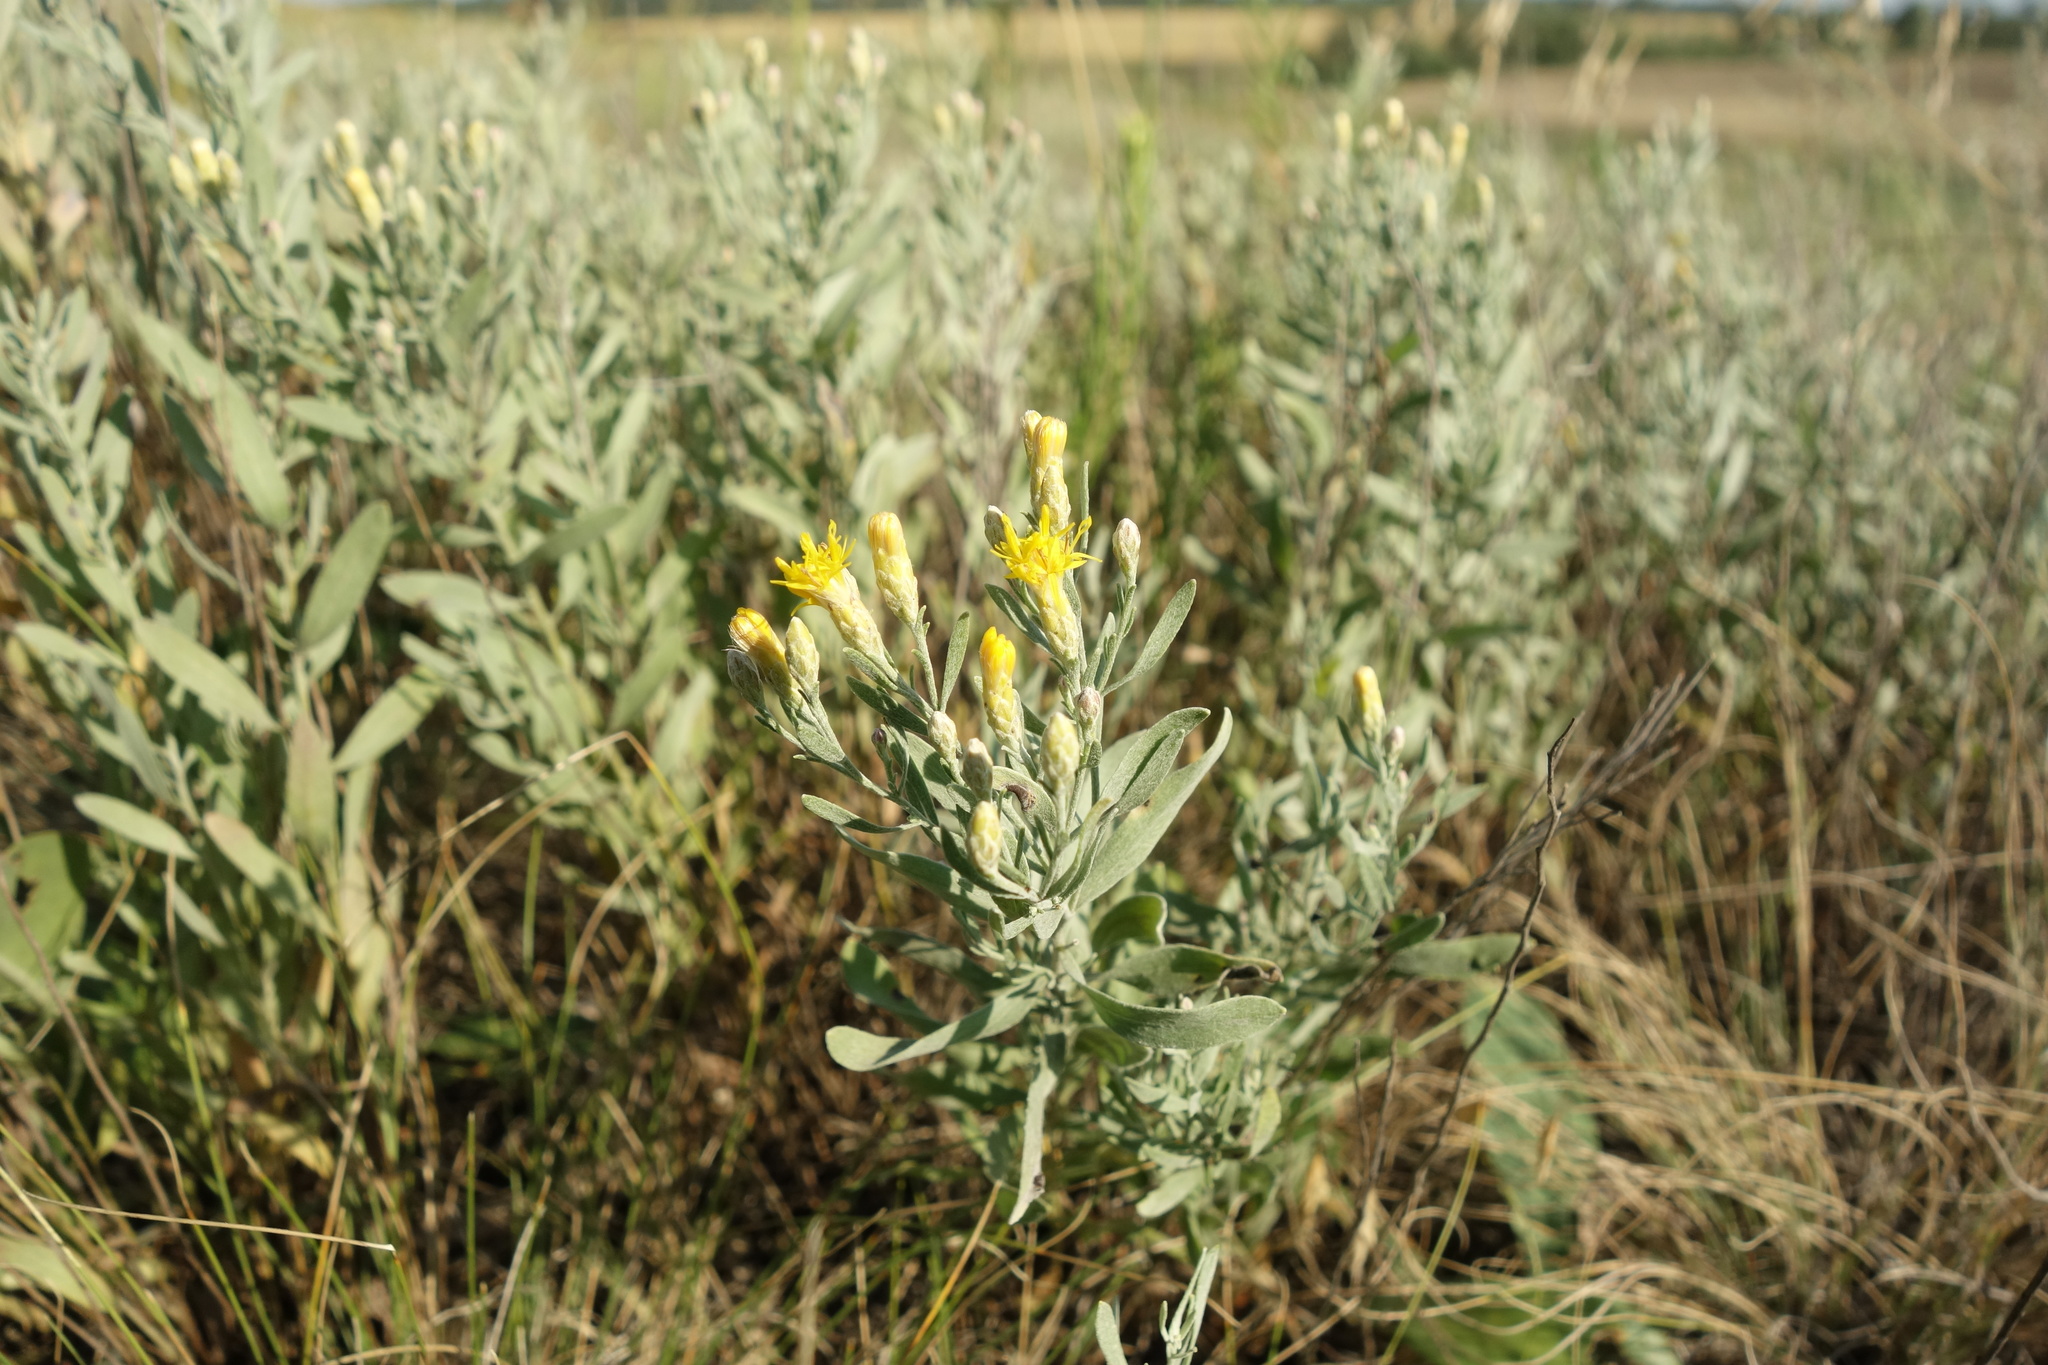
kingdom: Plantae
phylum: Tracheophyta
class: Magnoliopsida
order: Asterales
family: Asteraceae
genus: Galatella
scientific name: Galatella villosa
